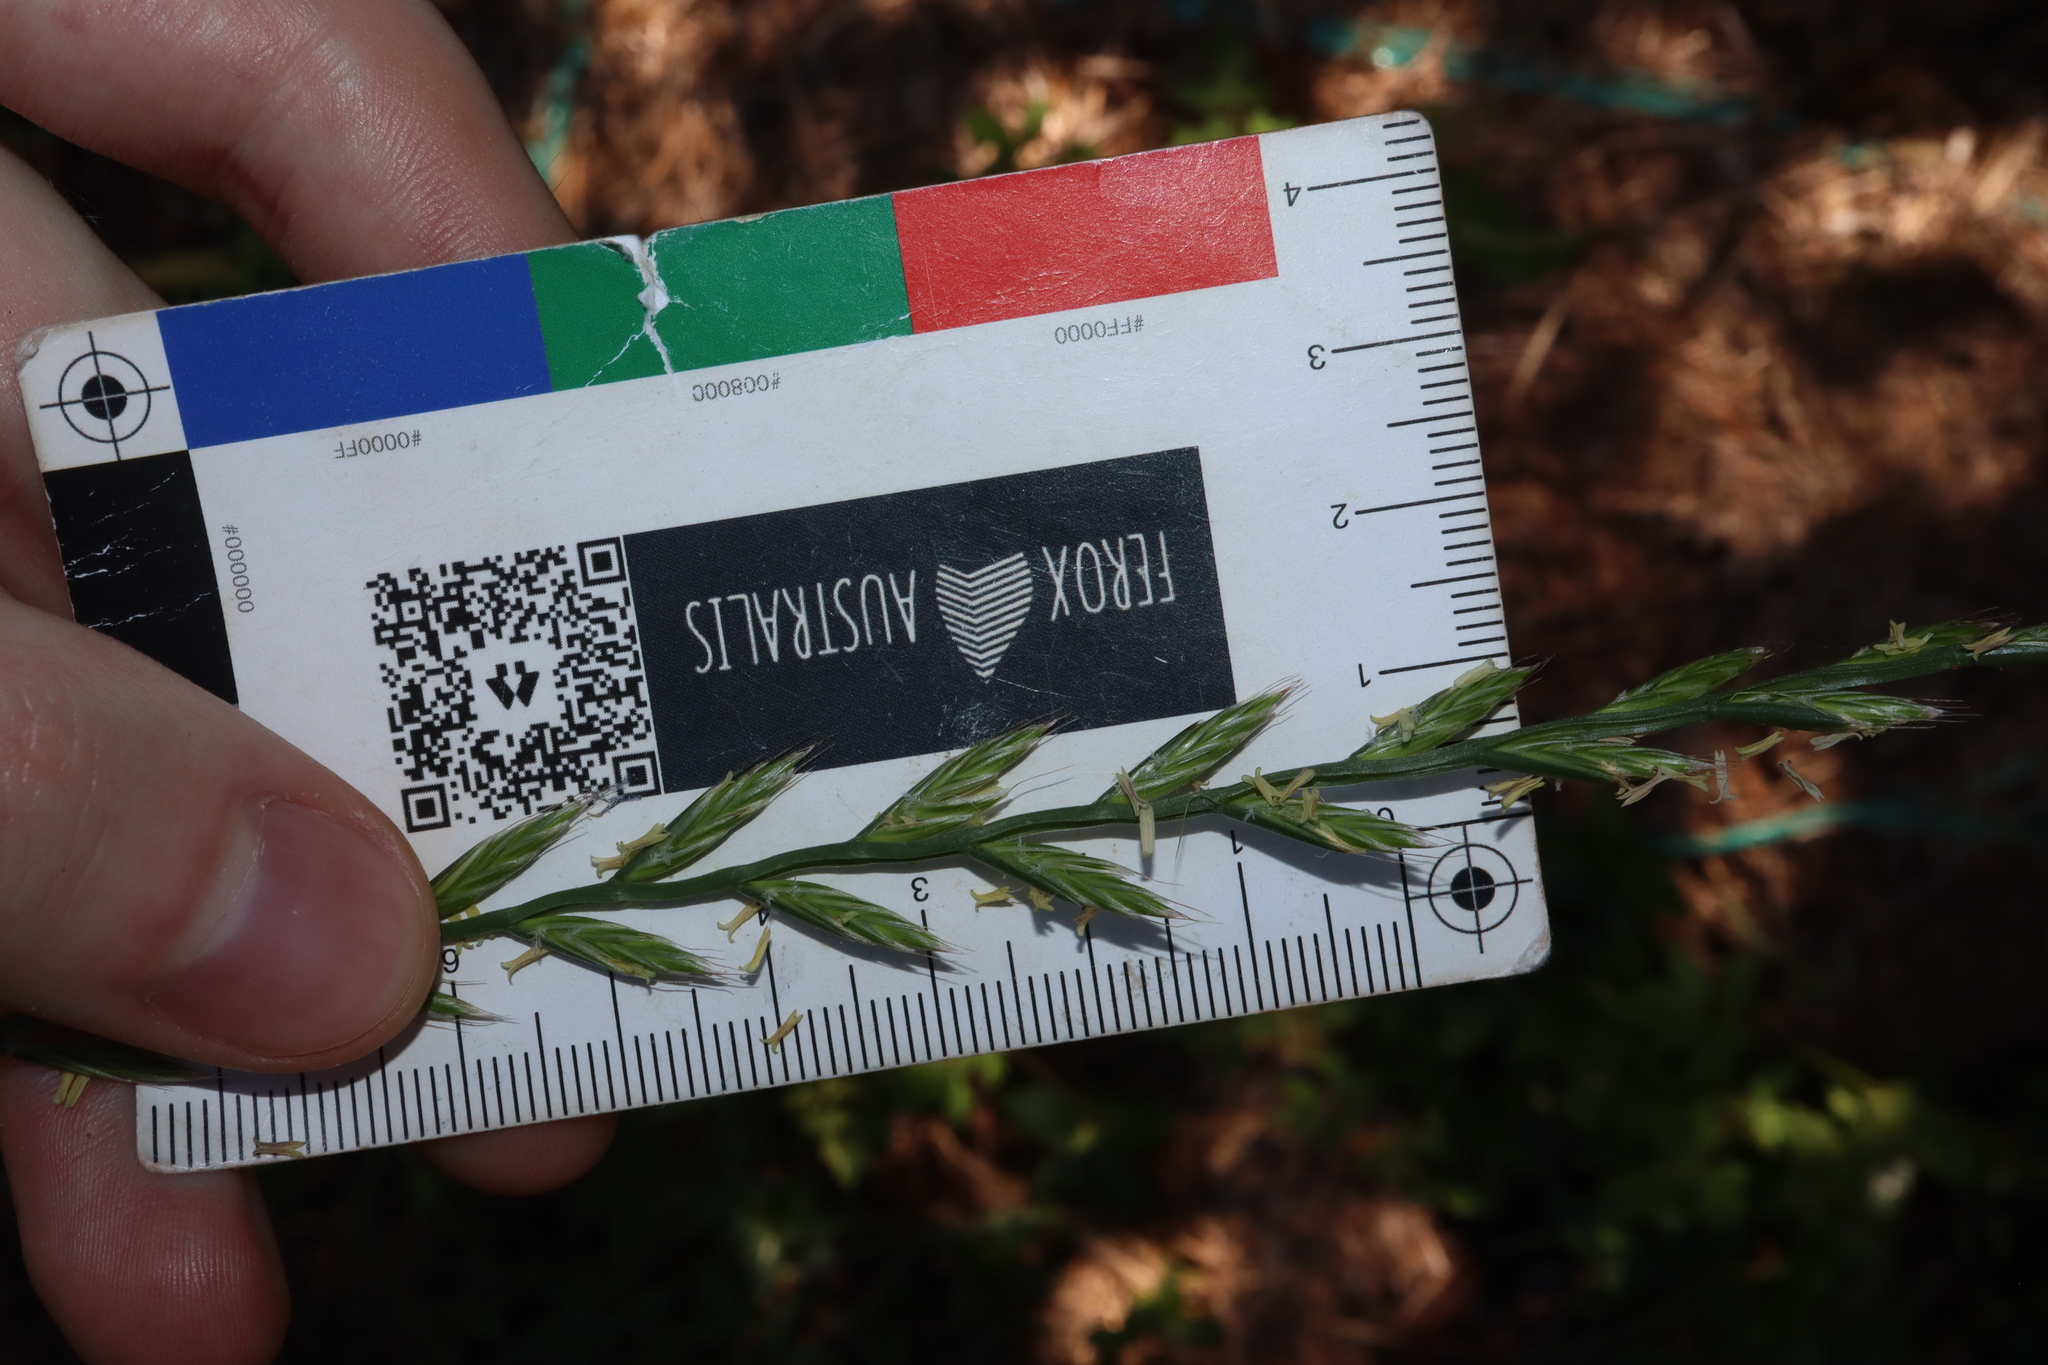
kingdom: Plantae
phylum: Tracheophyta
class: Liliopsida
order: Poales
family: Poaceae
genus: Lolium
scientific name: Lolium multiflorum
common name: Annual ryegrass
